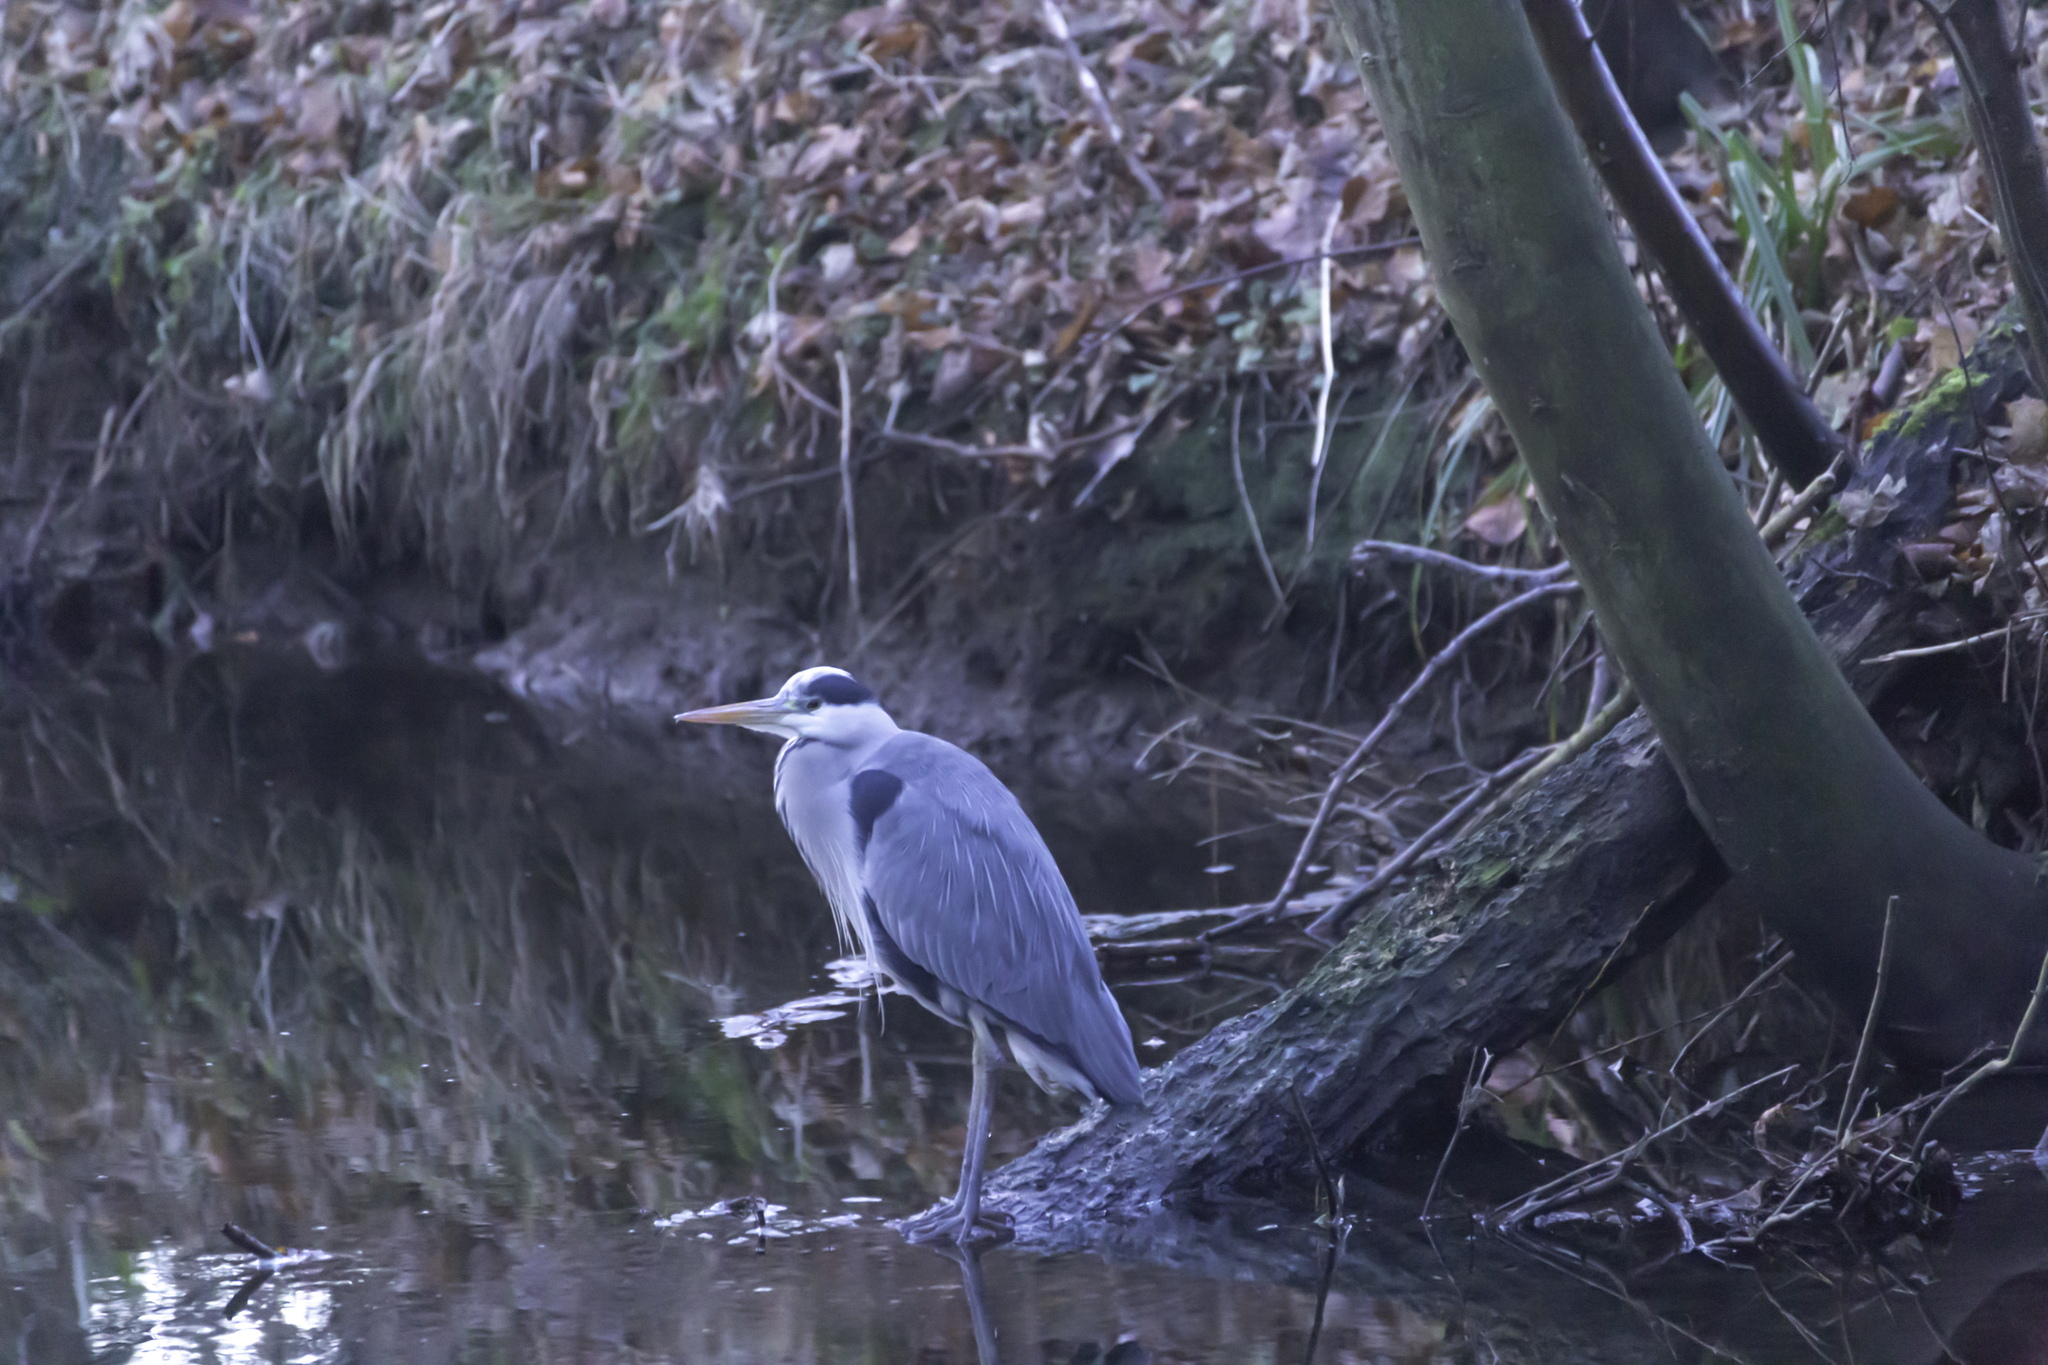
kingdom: Animalia
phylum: Chordata
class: Aves
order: Pelecaniformes
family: Ardeidae
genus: Ardea
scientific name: Ardea cinerea
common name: Grey heron
